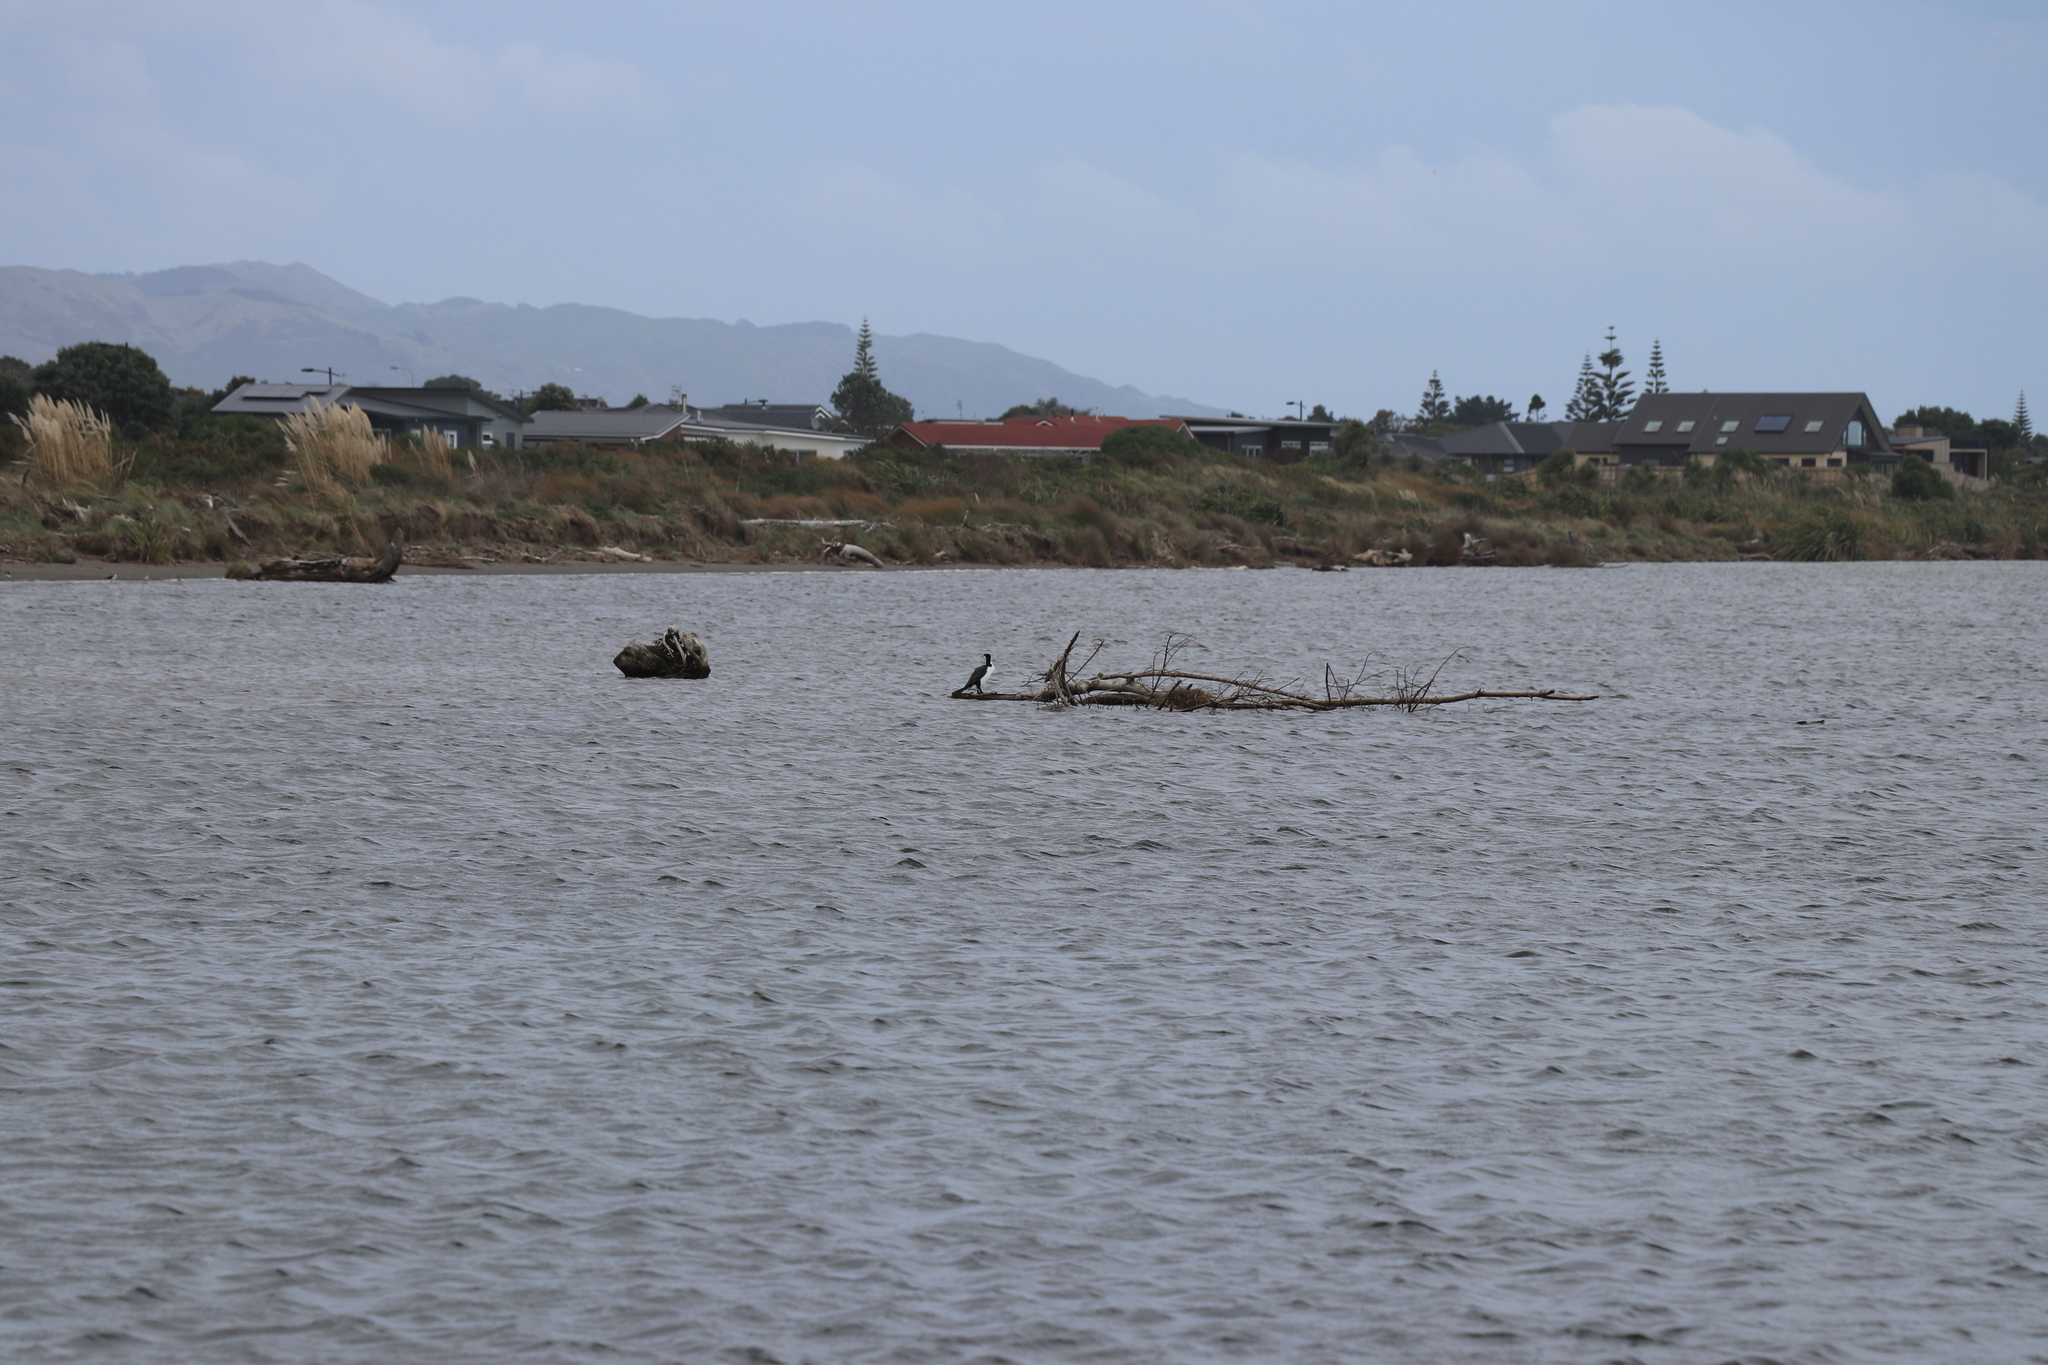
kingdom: Animalia
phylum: Chordata
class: Aves
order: Suliformes
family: Phalacrocoracidae
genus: Phalacrocorax
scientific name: Phalacrocorax varius
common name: Pied cormorant
